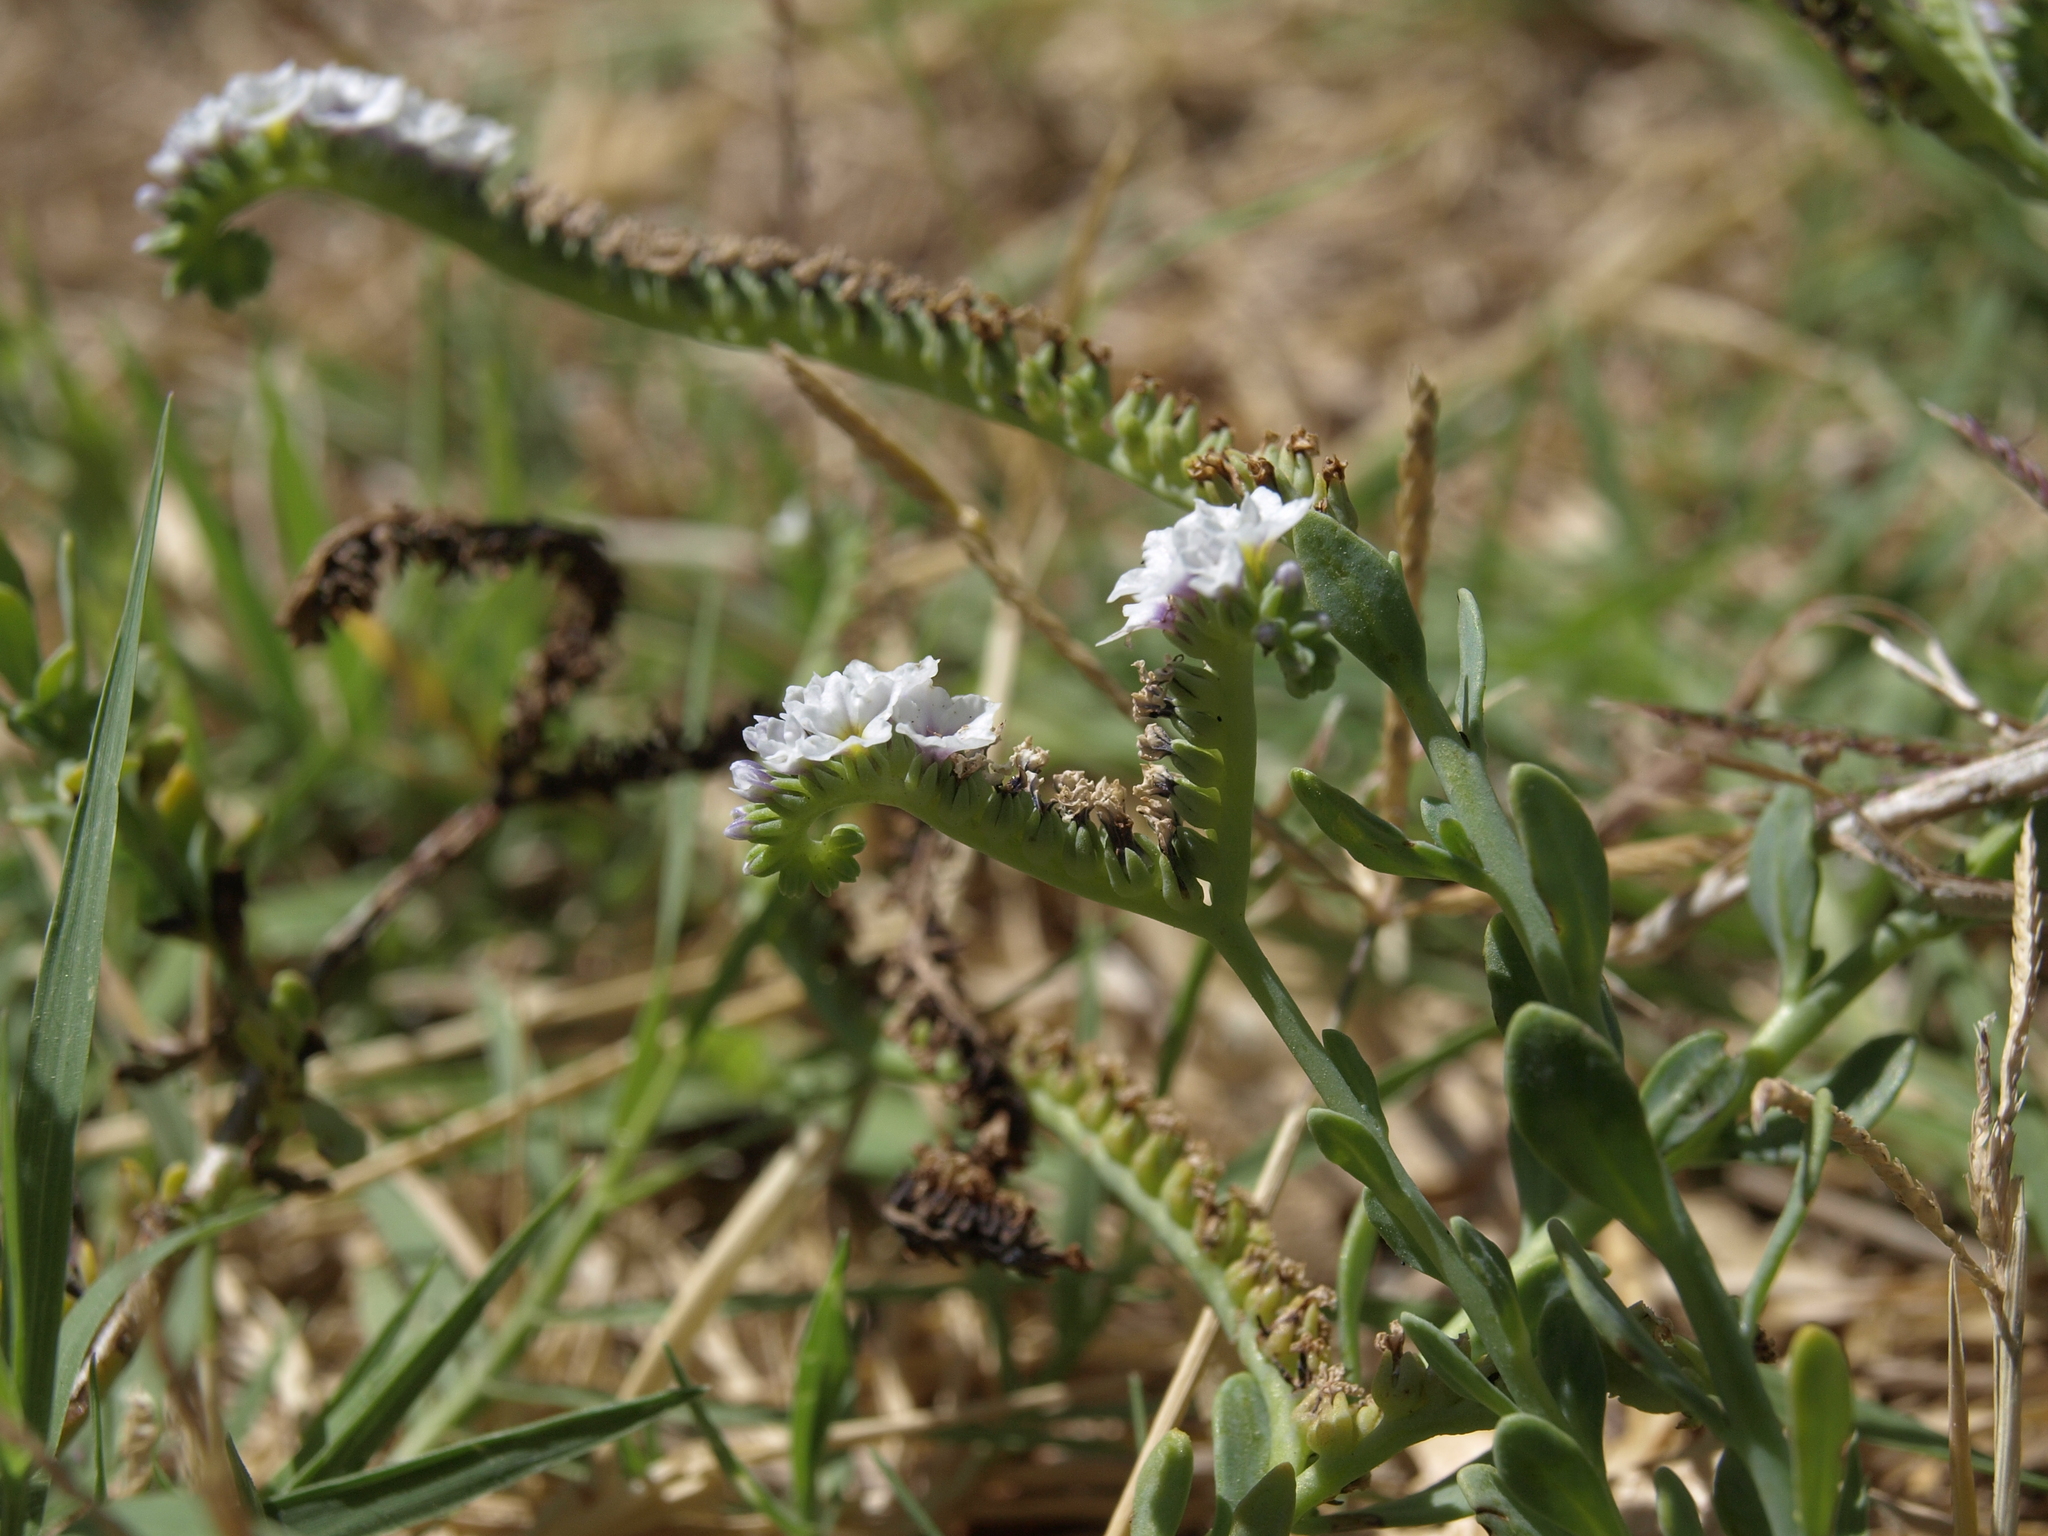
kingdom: Plantae
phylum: Tracheophyta
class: Magnoliopsida
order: Boraginales
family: Heliotropiaceae
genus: Heliotropium
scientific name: Heliotropium curassavicum
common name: Seaside heliotrope
